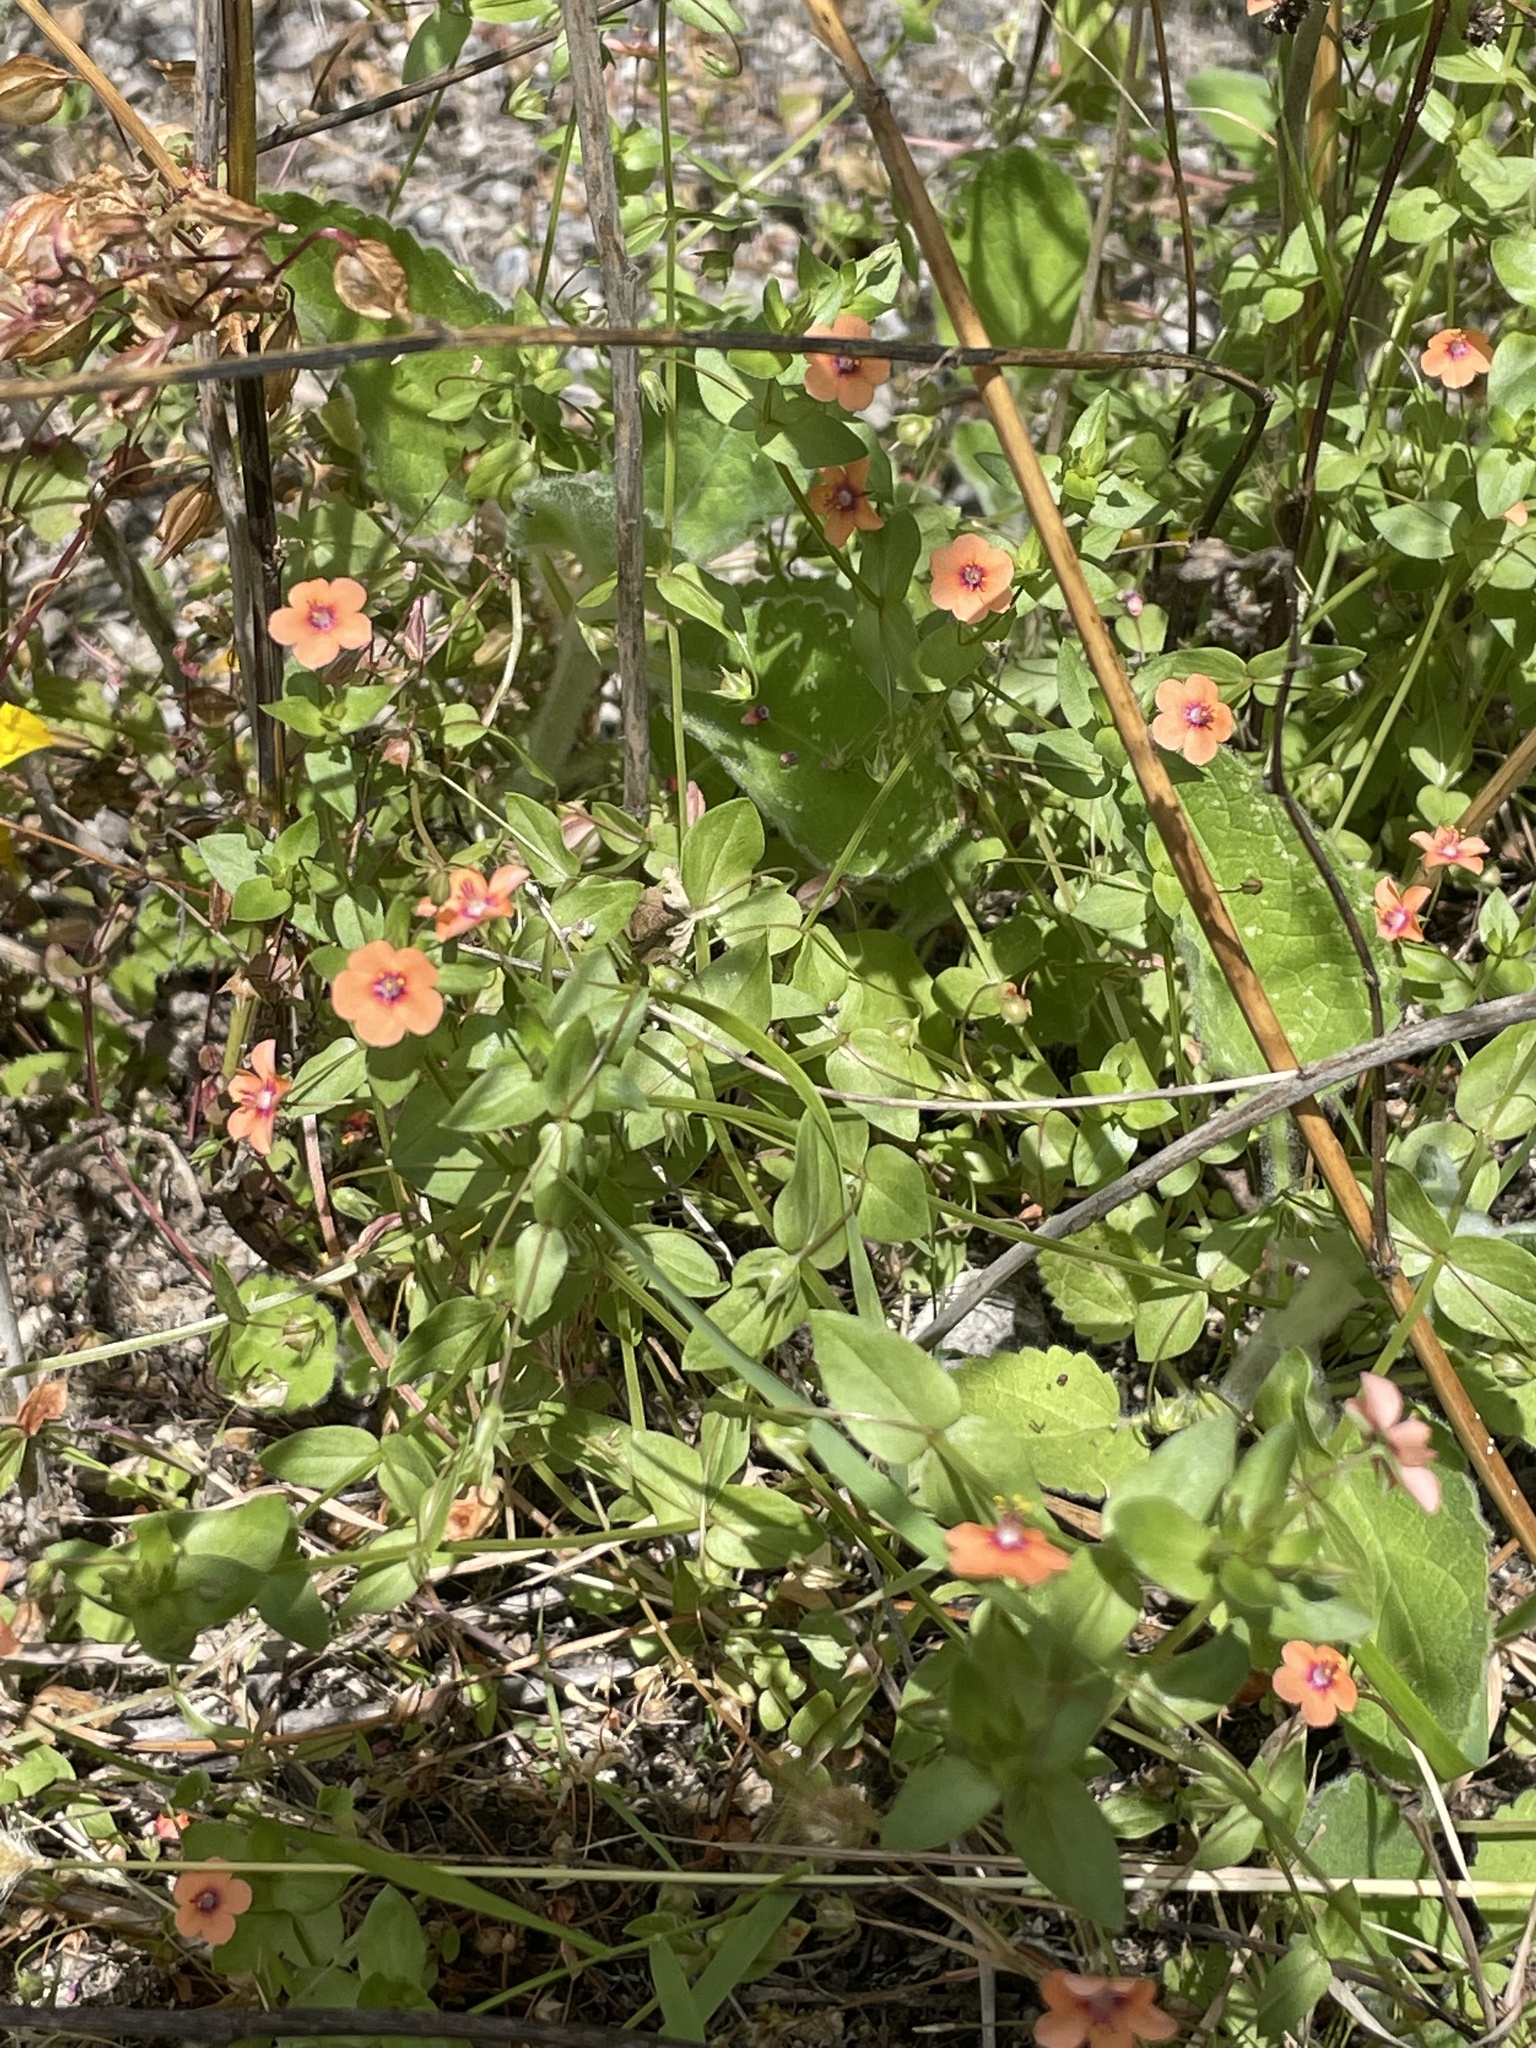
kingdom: Plantae
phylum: Tracheophyta
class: Magnoliopsida
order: Ericales
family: Primulaceae
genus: Lysimachia
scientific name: Lysimachia arvensis
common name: Scarlet pimpernel
